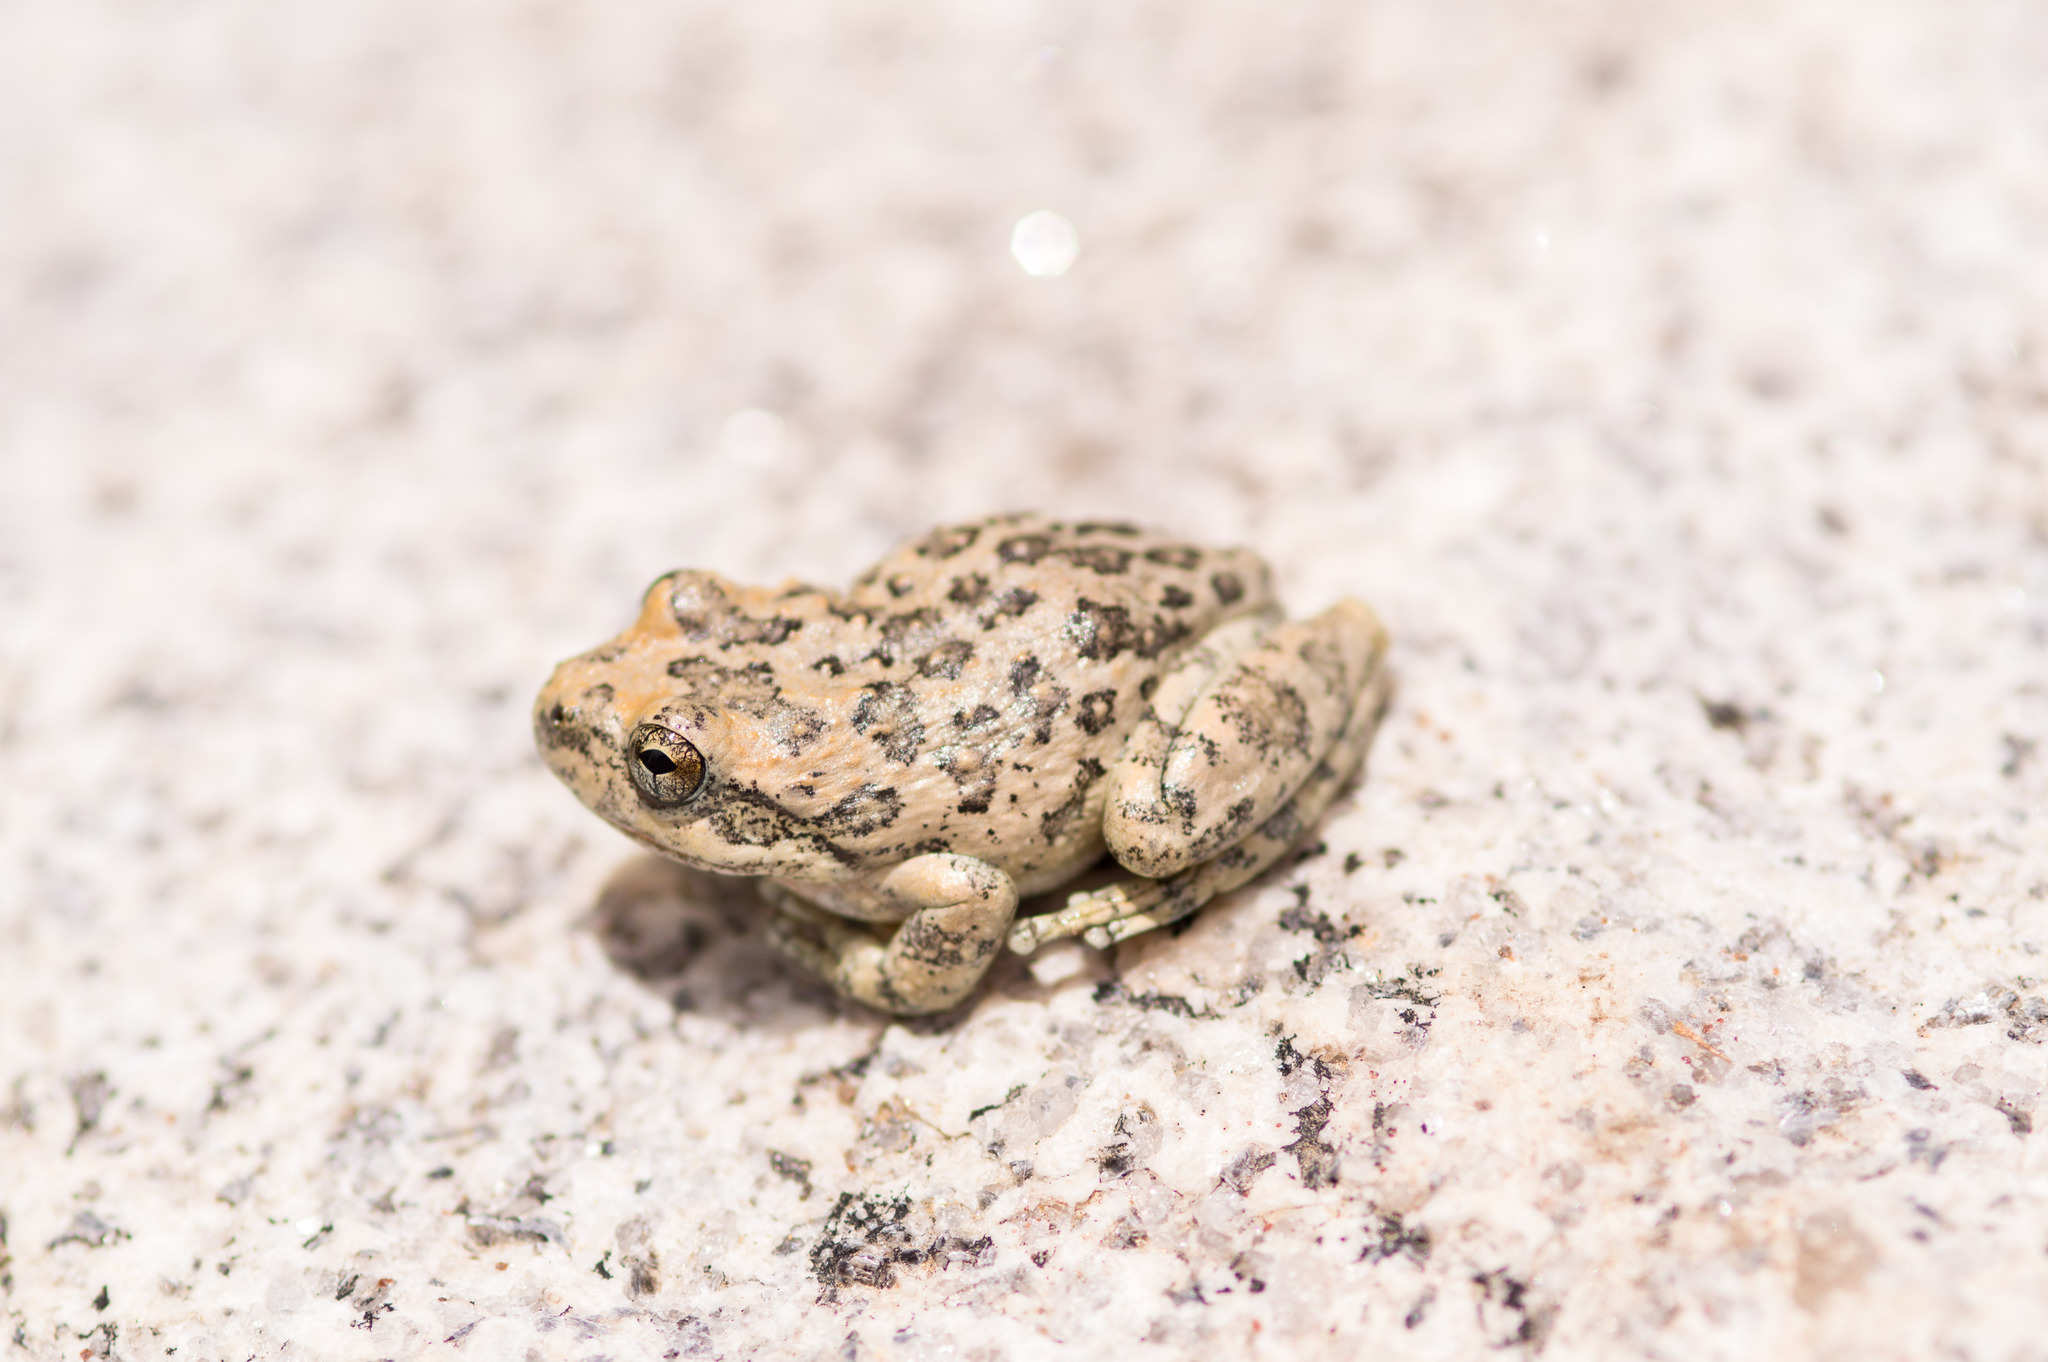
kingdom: Animalia
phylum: Chordata
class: Amphibia
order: Anura
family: Hylidae
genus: Pseudacris
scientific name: Pseudacris cadaverina
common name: California chorus frog
